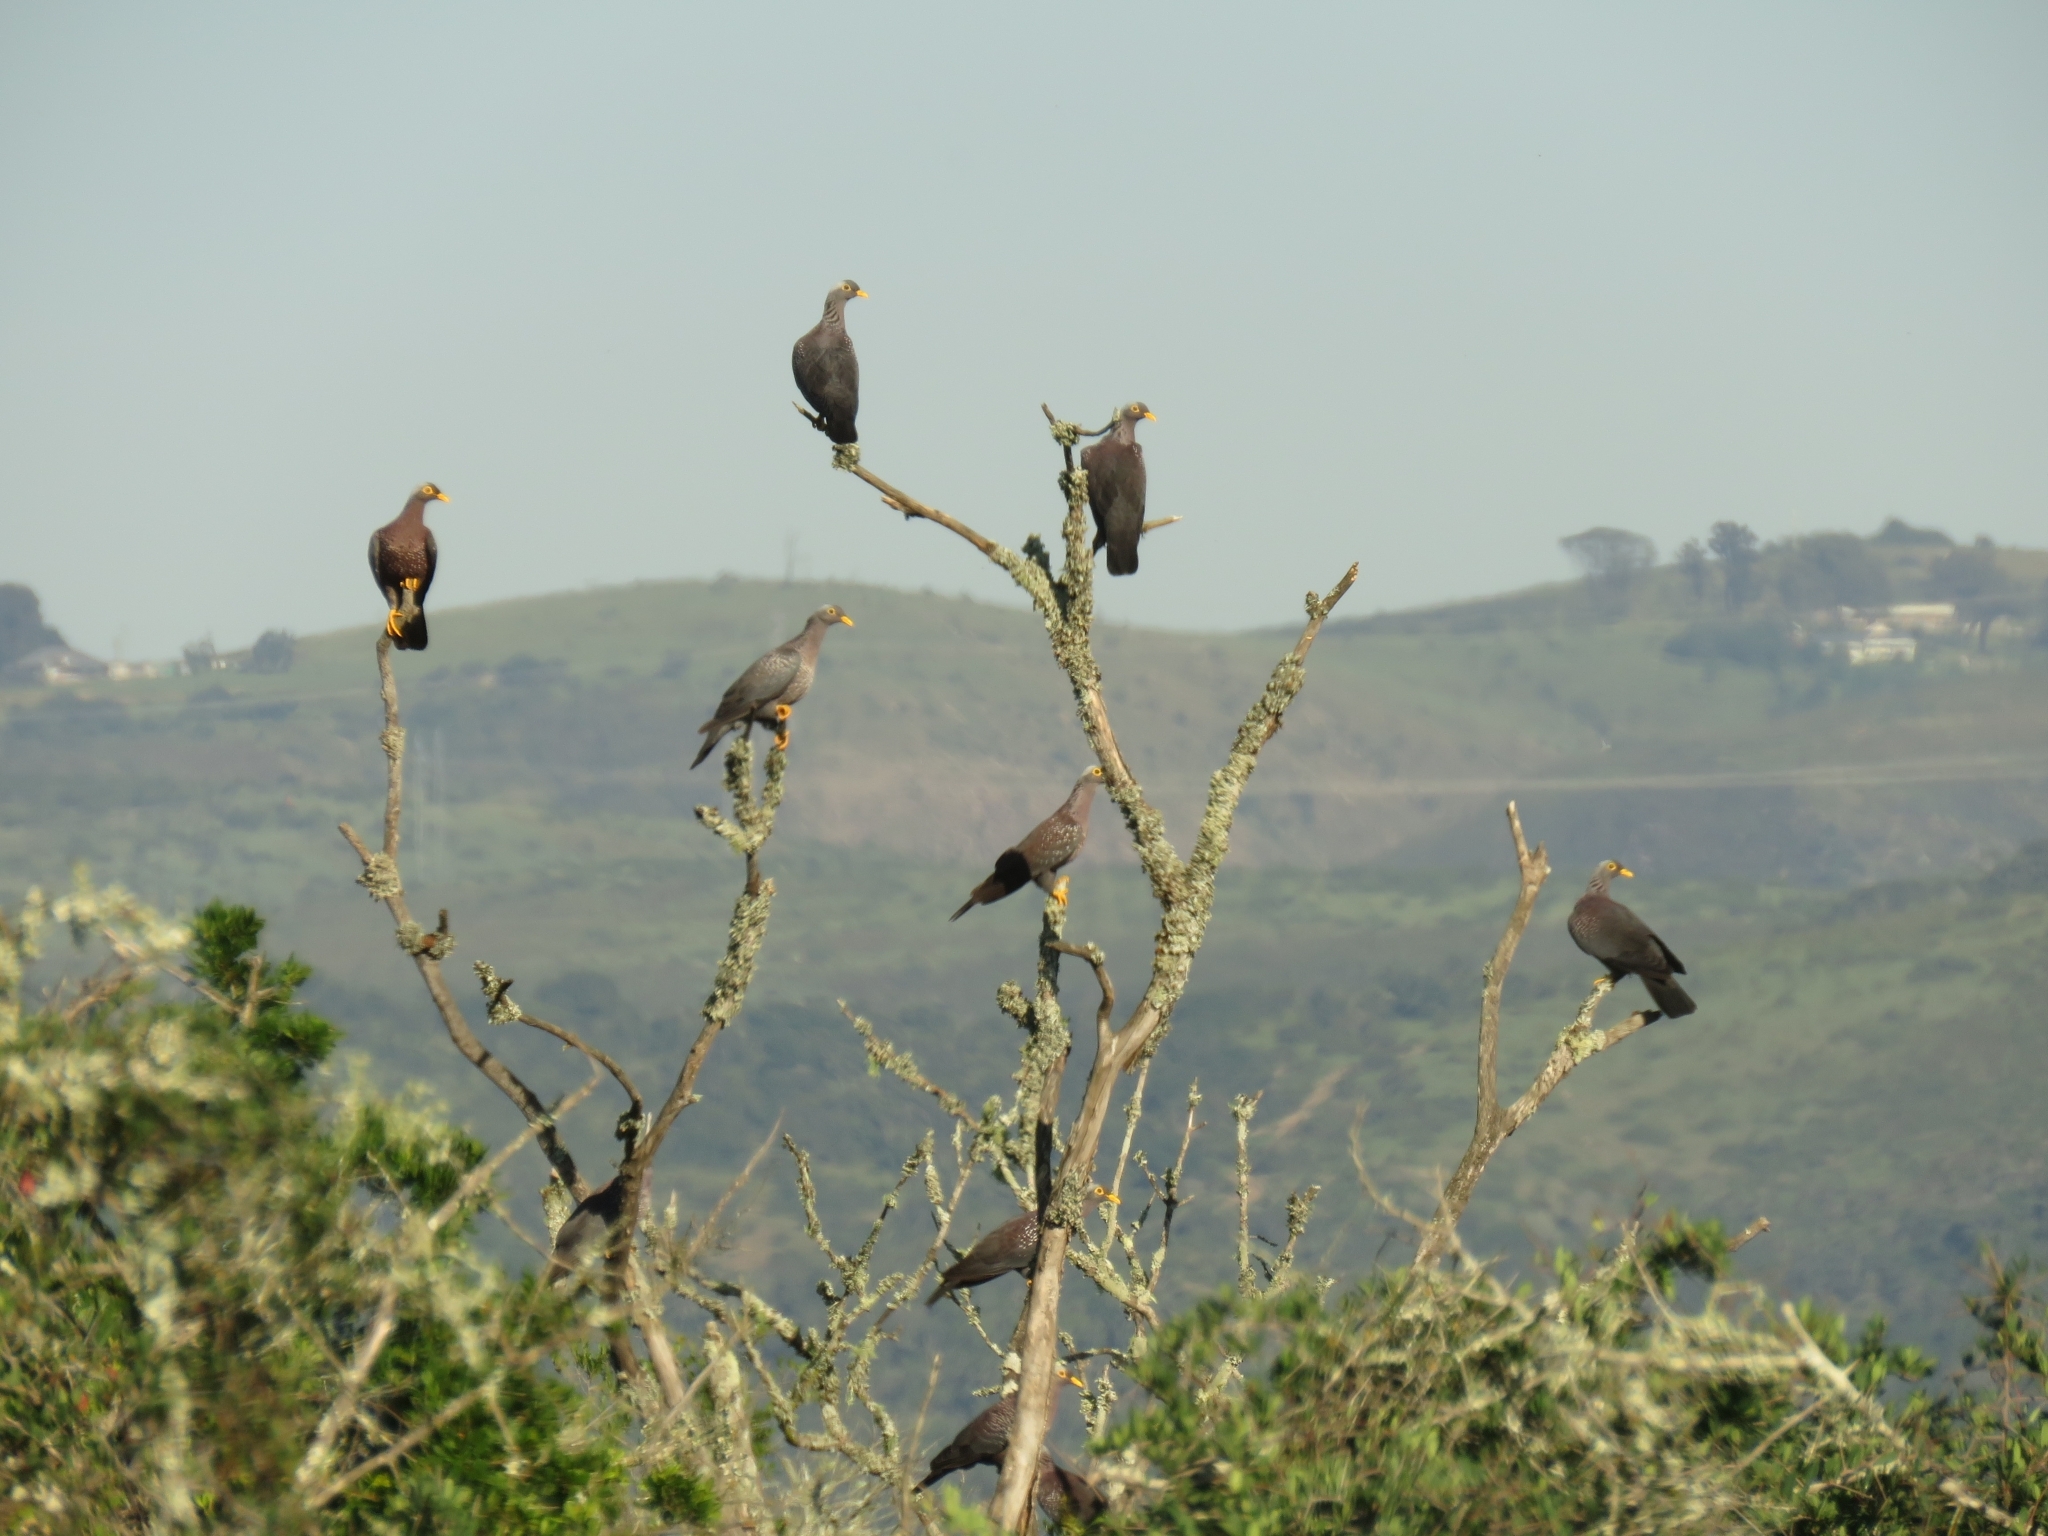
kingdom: Animalia
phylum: Chordata
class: Aves
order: Columbiformes
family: Columbidae
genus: Columba
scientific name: Columba arquatrix
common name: African olive pigeon
